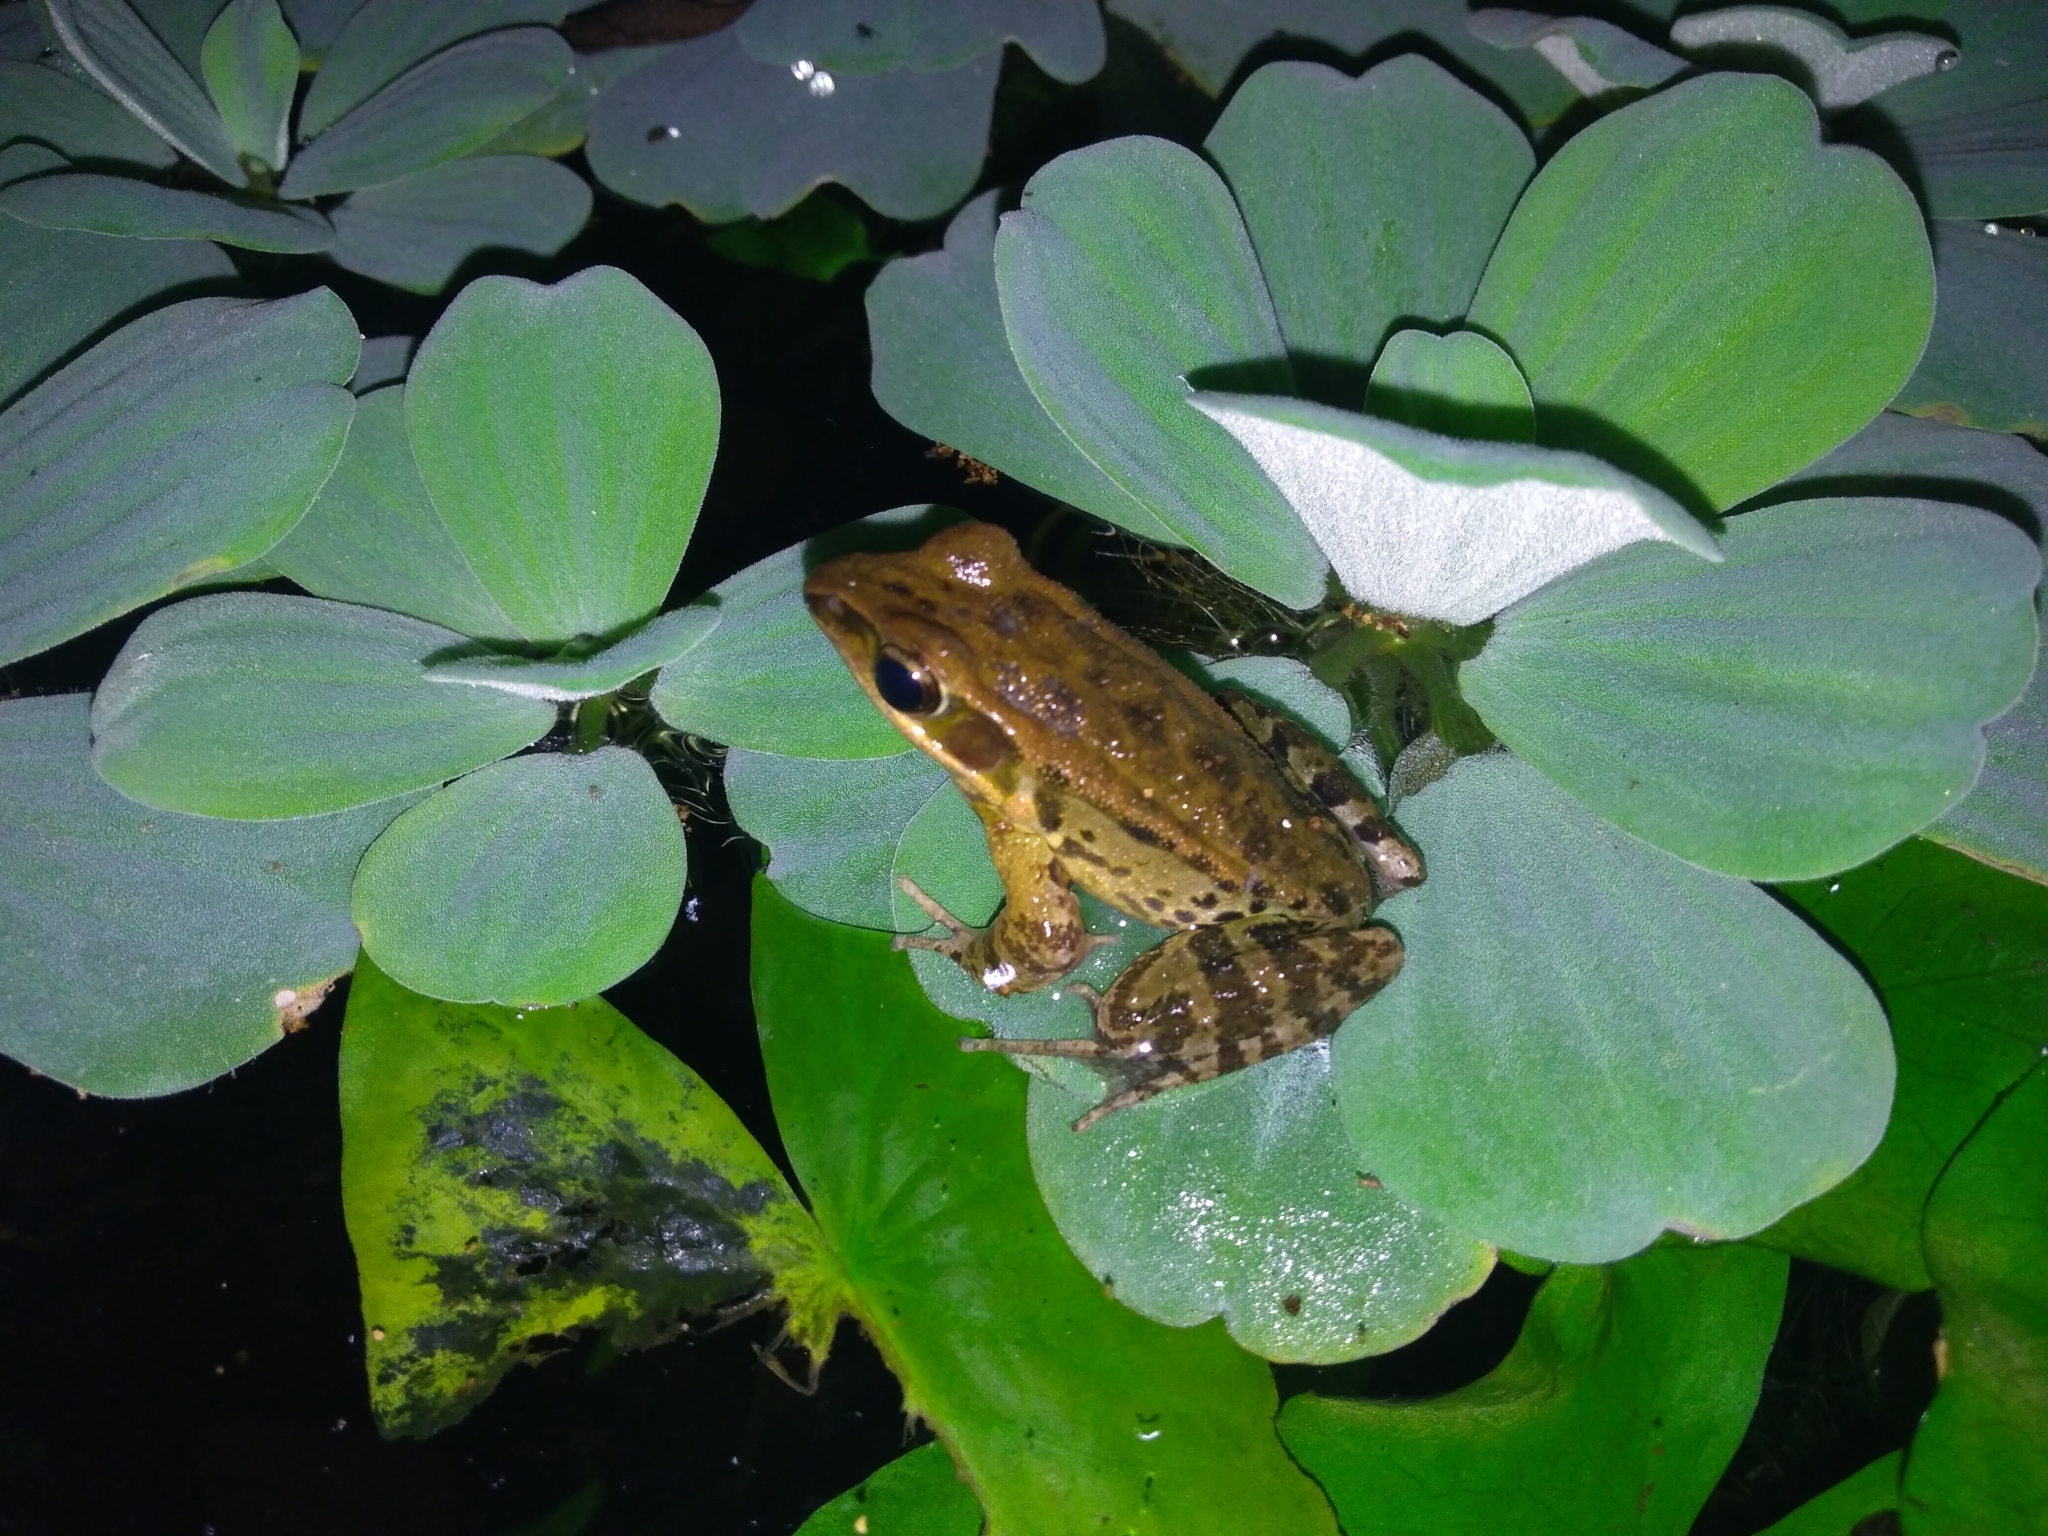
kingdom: Animalia
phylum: Chordata
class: Amphibia
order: Anura
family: Ranidae
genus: Hylarana
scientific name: Hylarana latouchii
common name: Broad-folded frog
